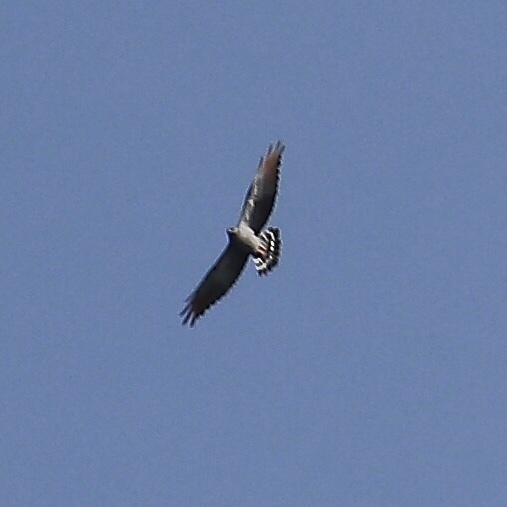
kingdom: Animalia
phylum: Chordata
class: Aves
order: Accipitriformes
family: Accipitridae
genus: Ictinia
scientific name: Ictinia plumbea
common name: Plumbeous kite
